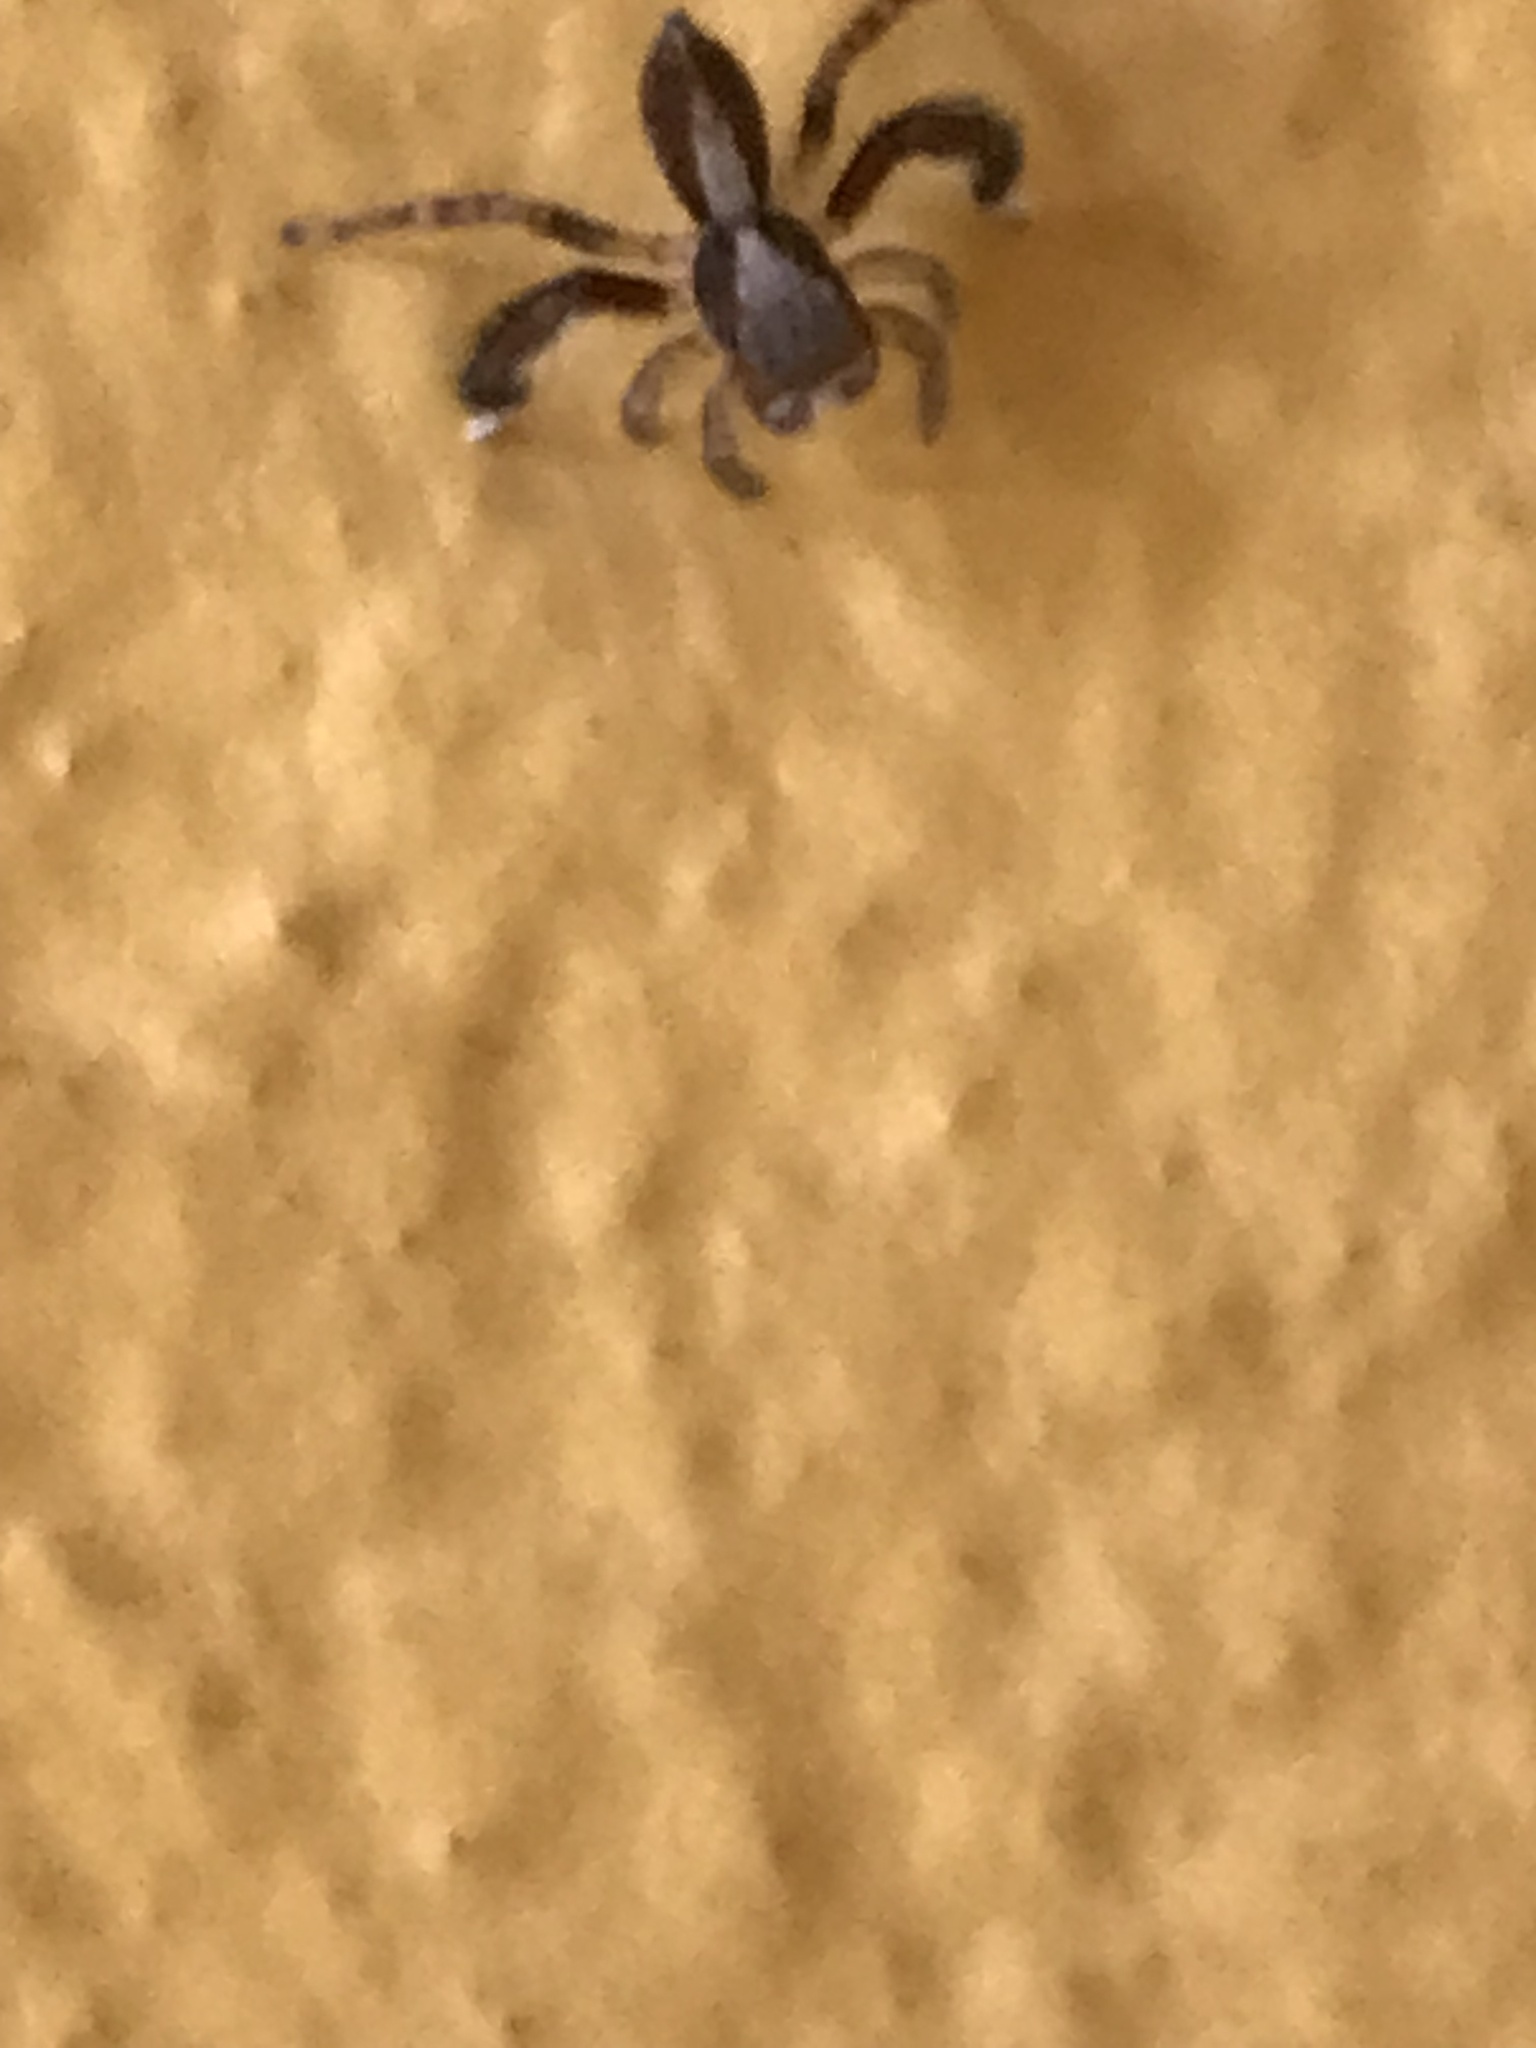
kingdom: Animalia
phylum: Arthropoda
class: Arachnida
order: Araneae
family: Salticidae
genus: Saitis
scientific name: Saitis barbipes
